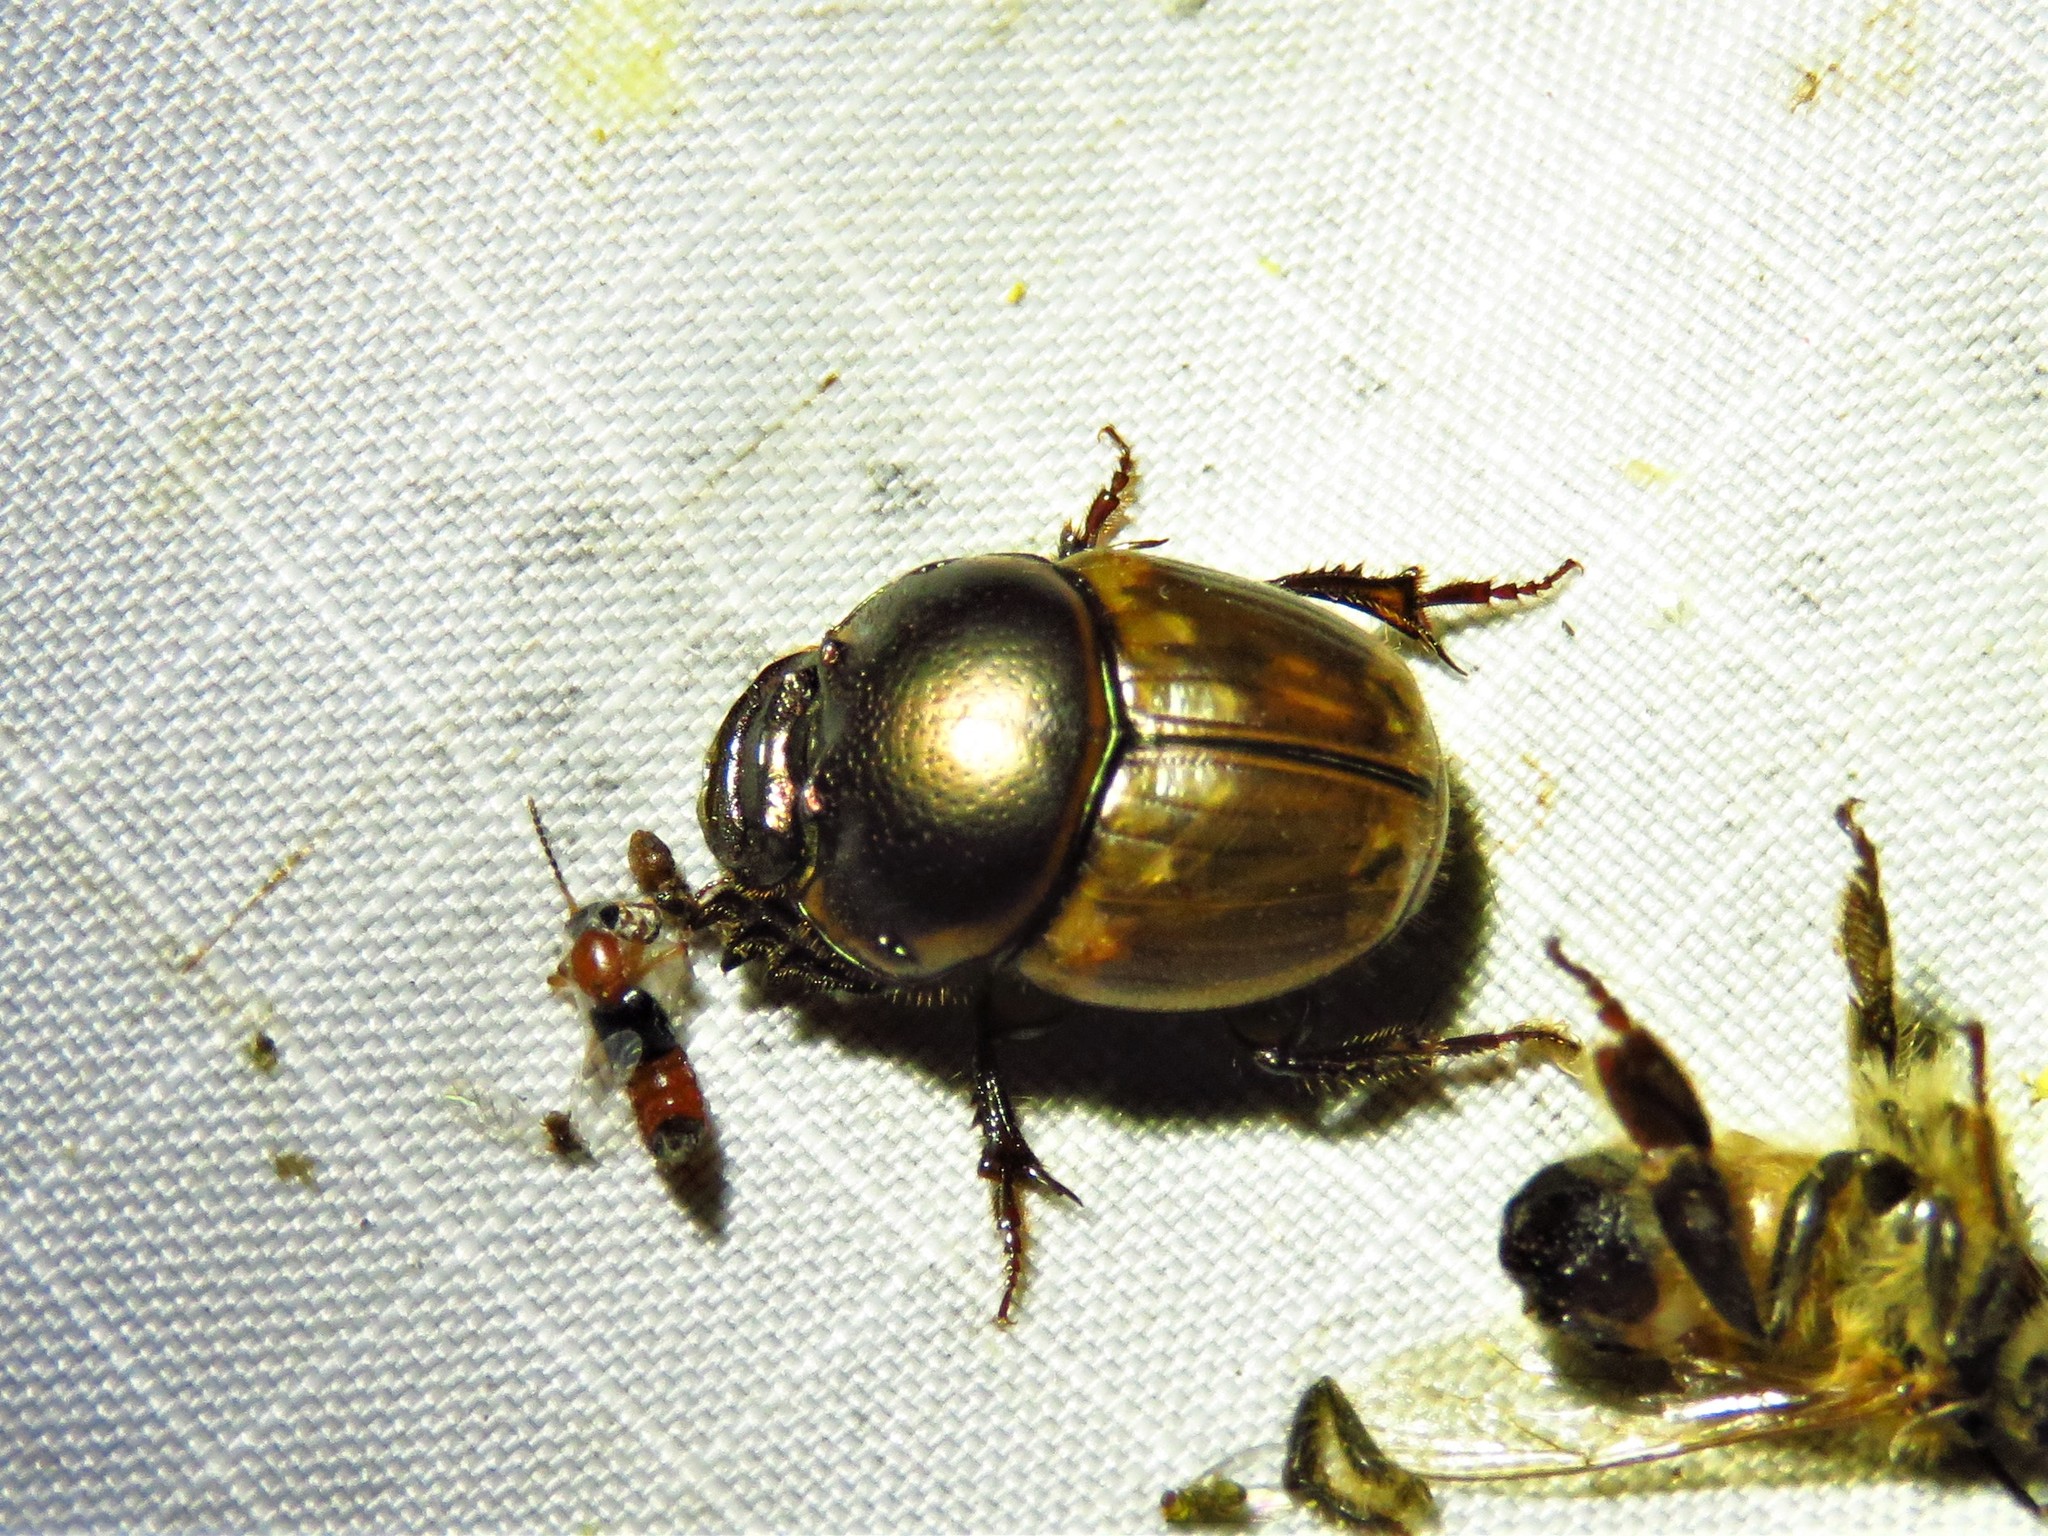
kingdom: Animalia
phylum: Arthropoda
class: Insecta
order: Coleoptera
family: Scarabaeidae
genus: Digitonthophagus
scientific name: Digitonthophagus gazella
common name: Brown dung beetle
